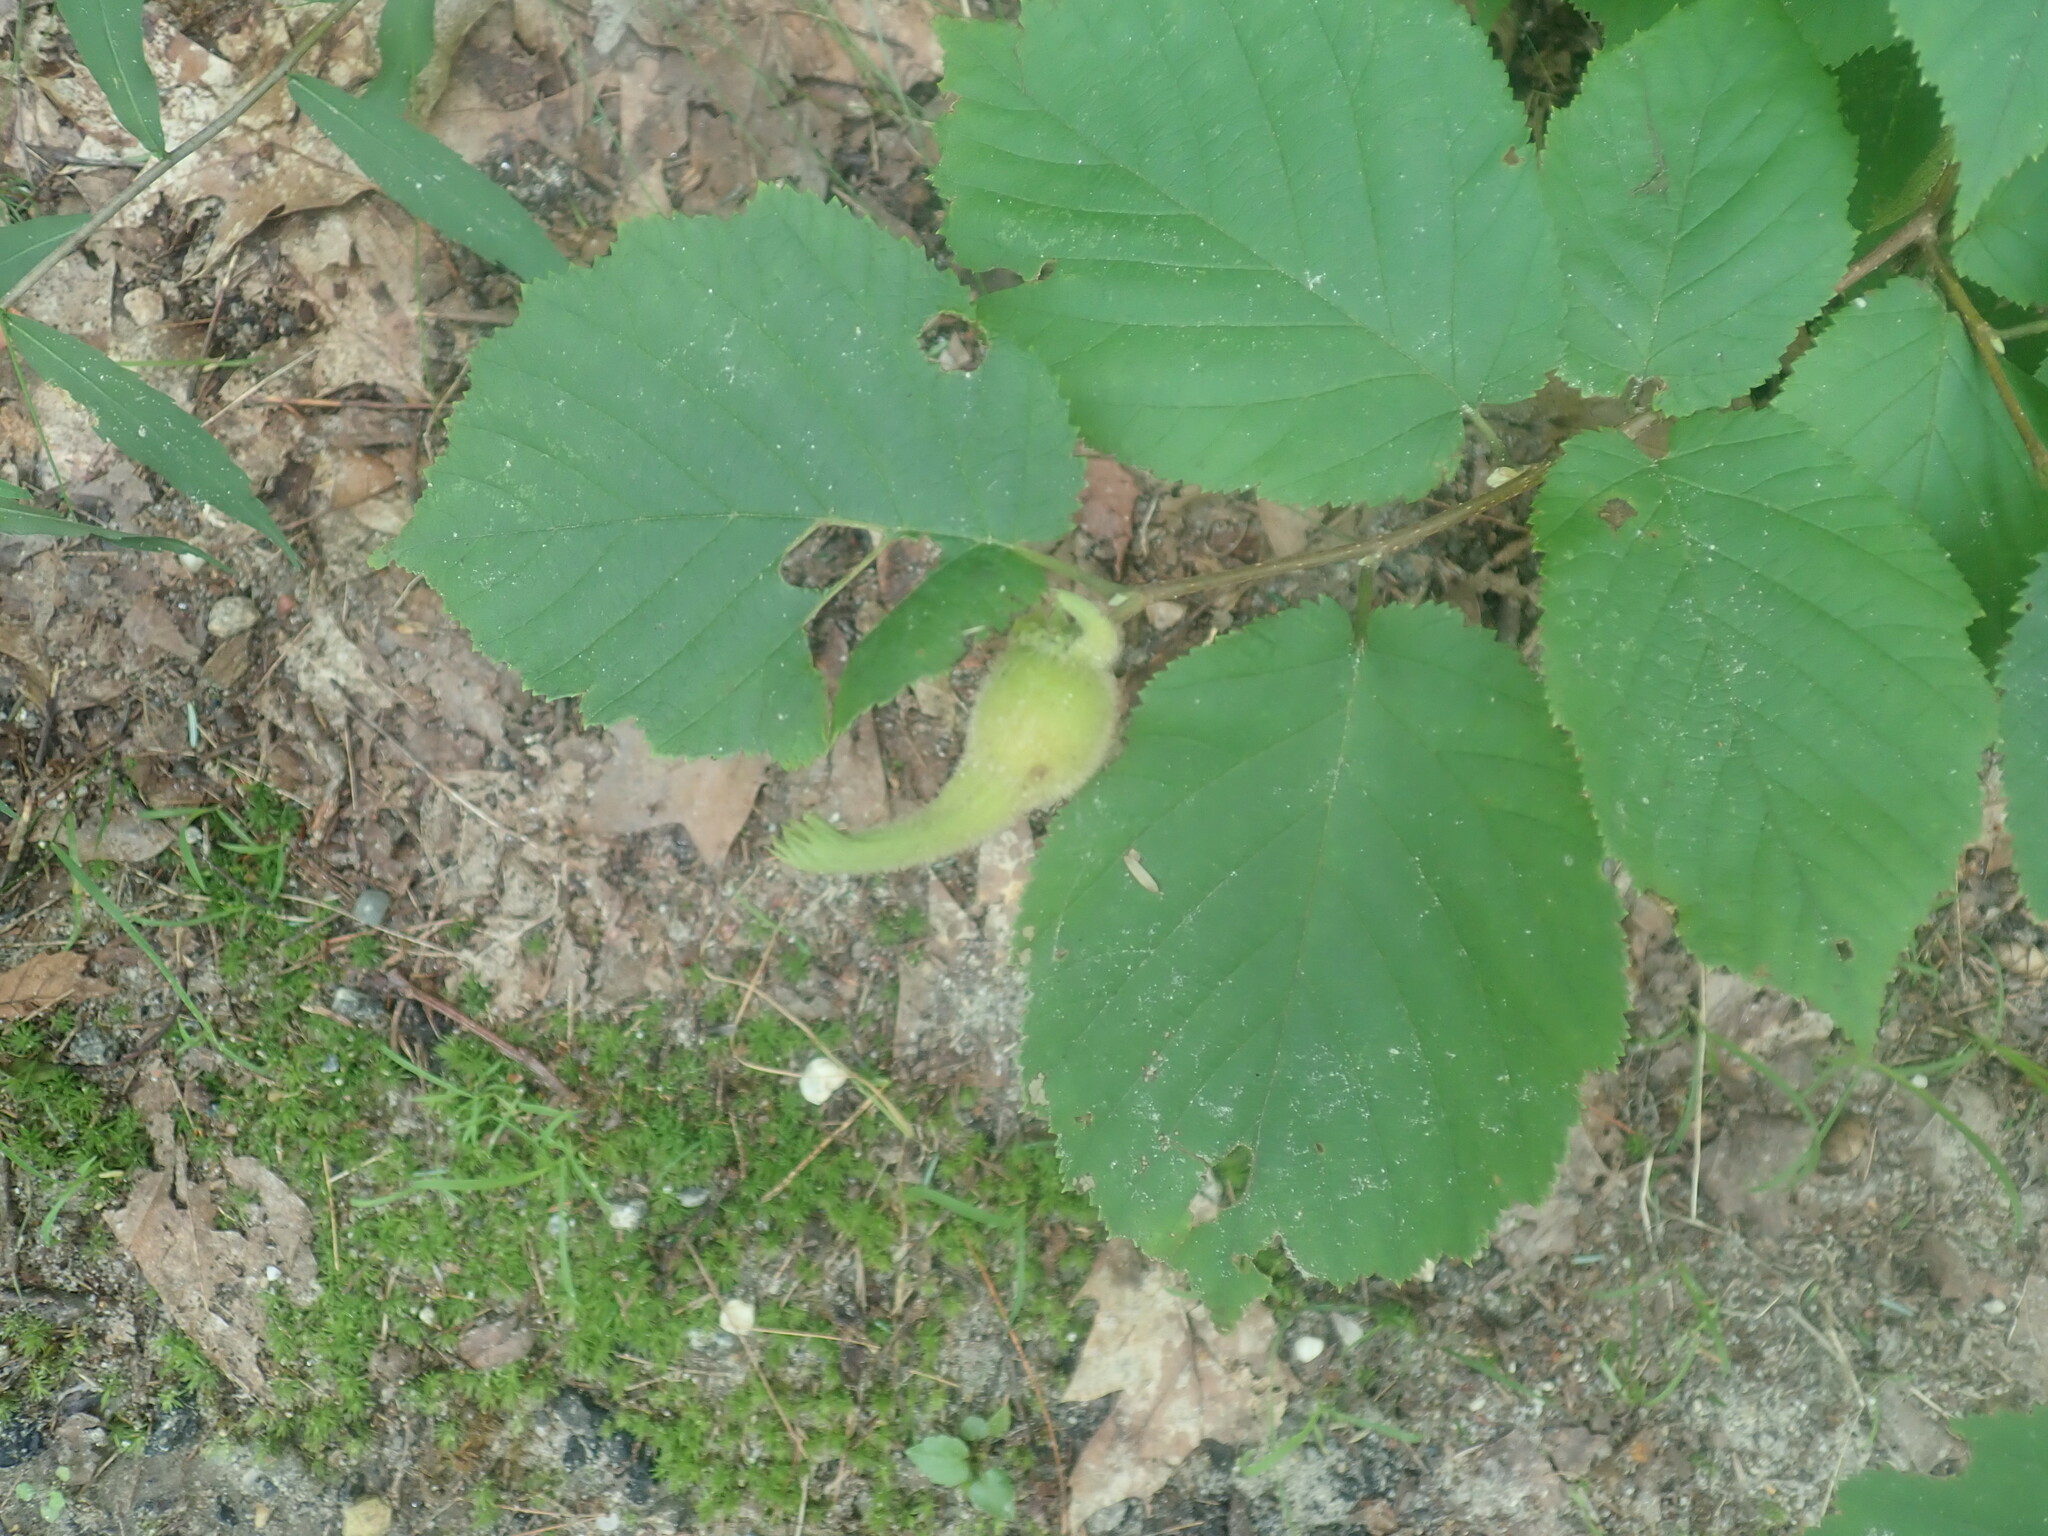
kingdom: Plantae
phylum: Tracheophyta
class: Magnoliopsida
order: Fagales
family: Betulaceae
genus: Corylus
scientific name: Corylus cornuta
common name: Beaked hazel
